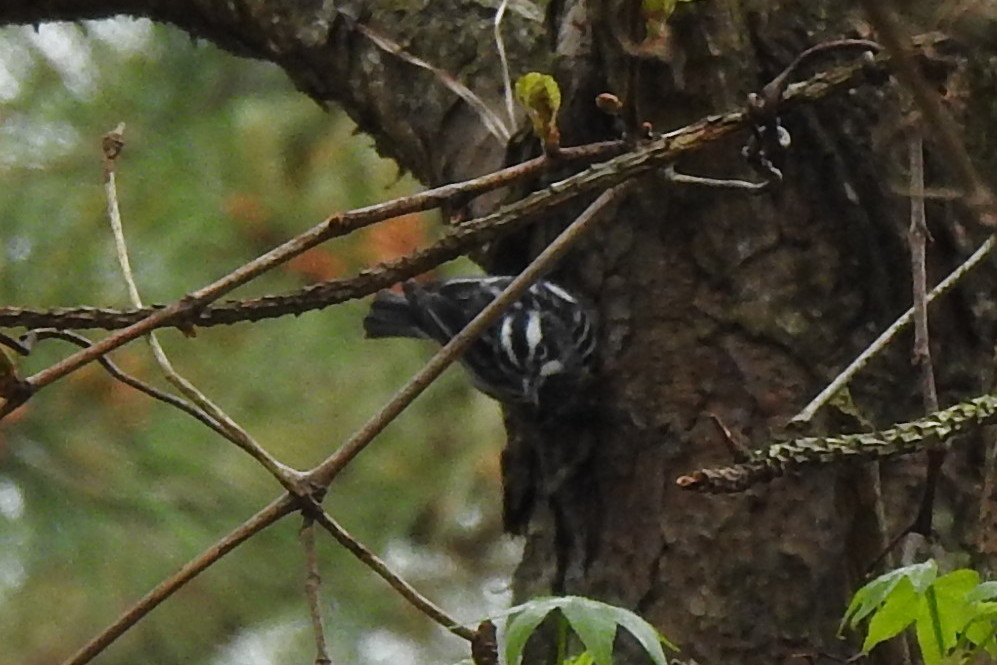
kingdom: Animalia
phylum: Chordata
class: Aves
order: Passeriformes
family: Parulidae
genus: Mniotilta
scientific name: Mniotilta varia
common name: Black-and-white warbler
